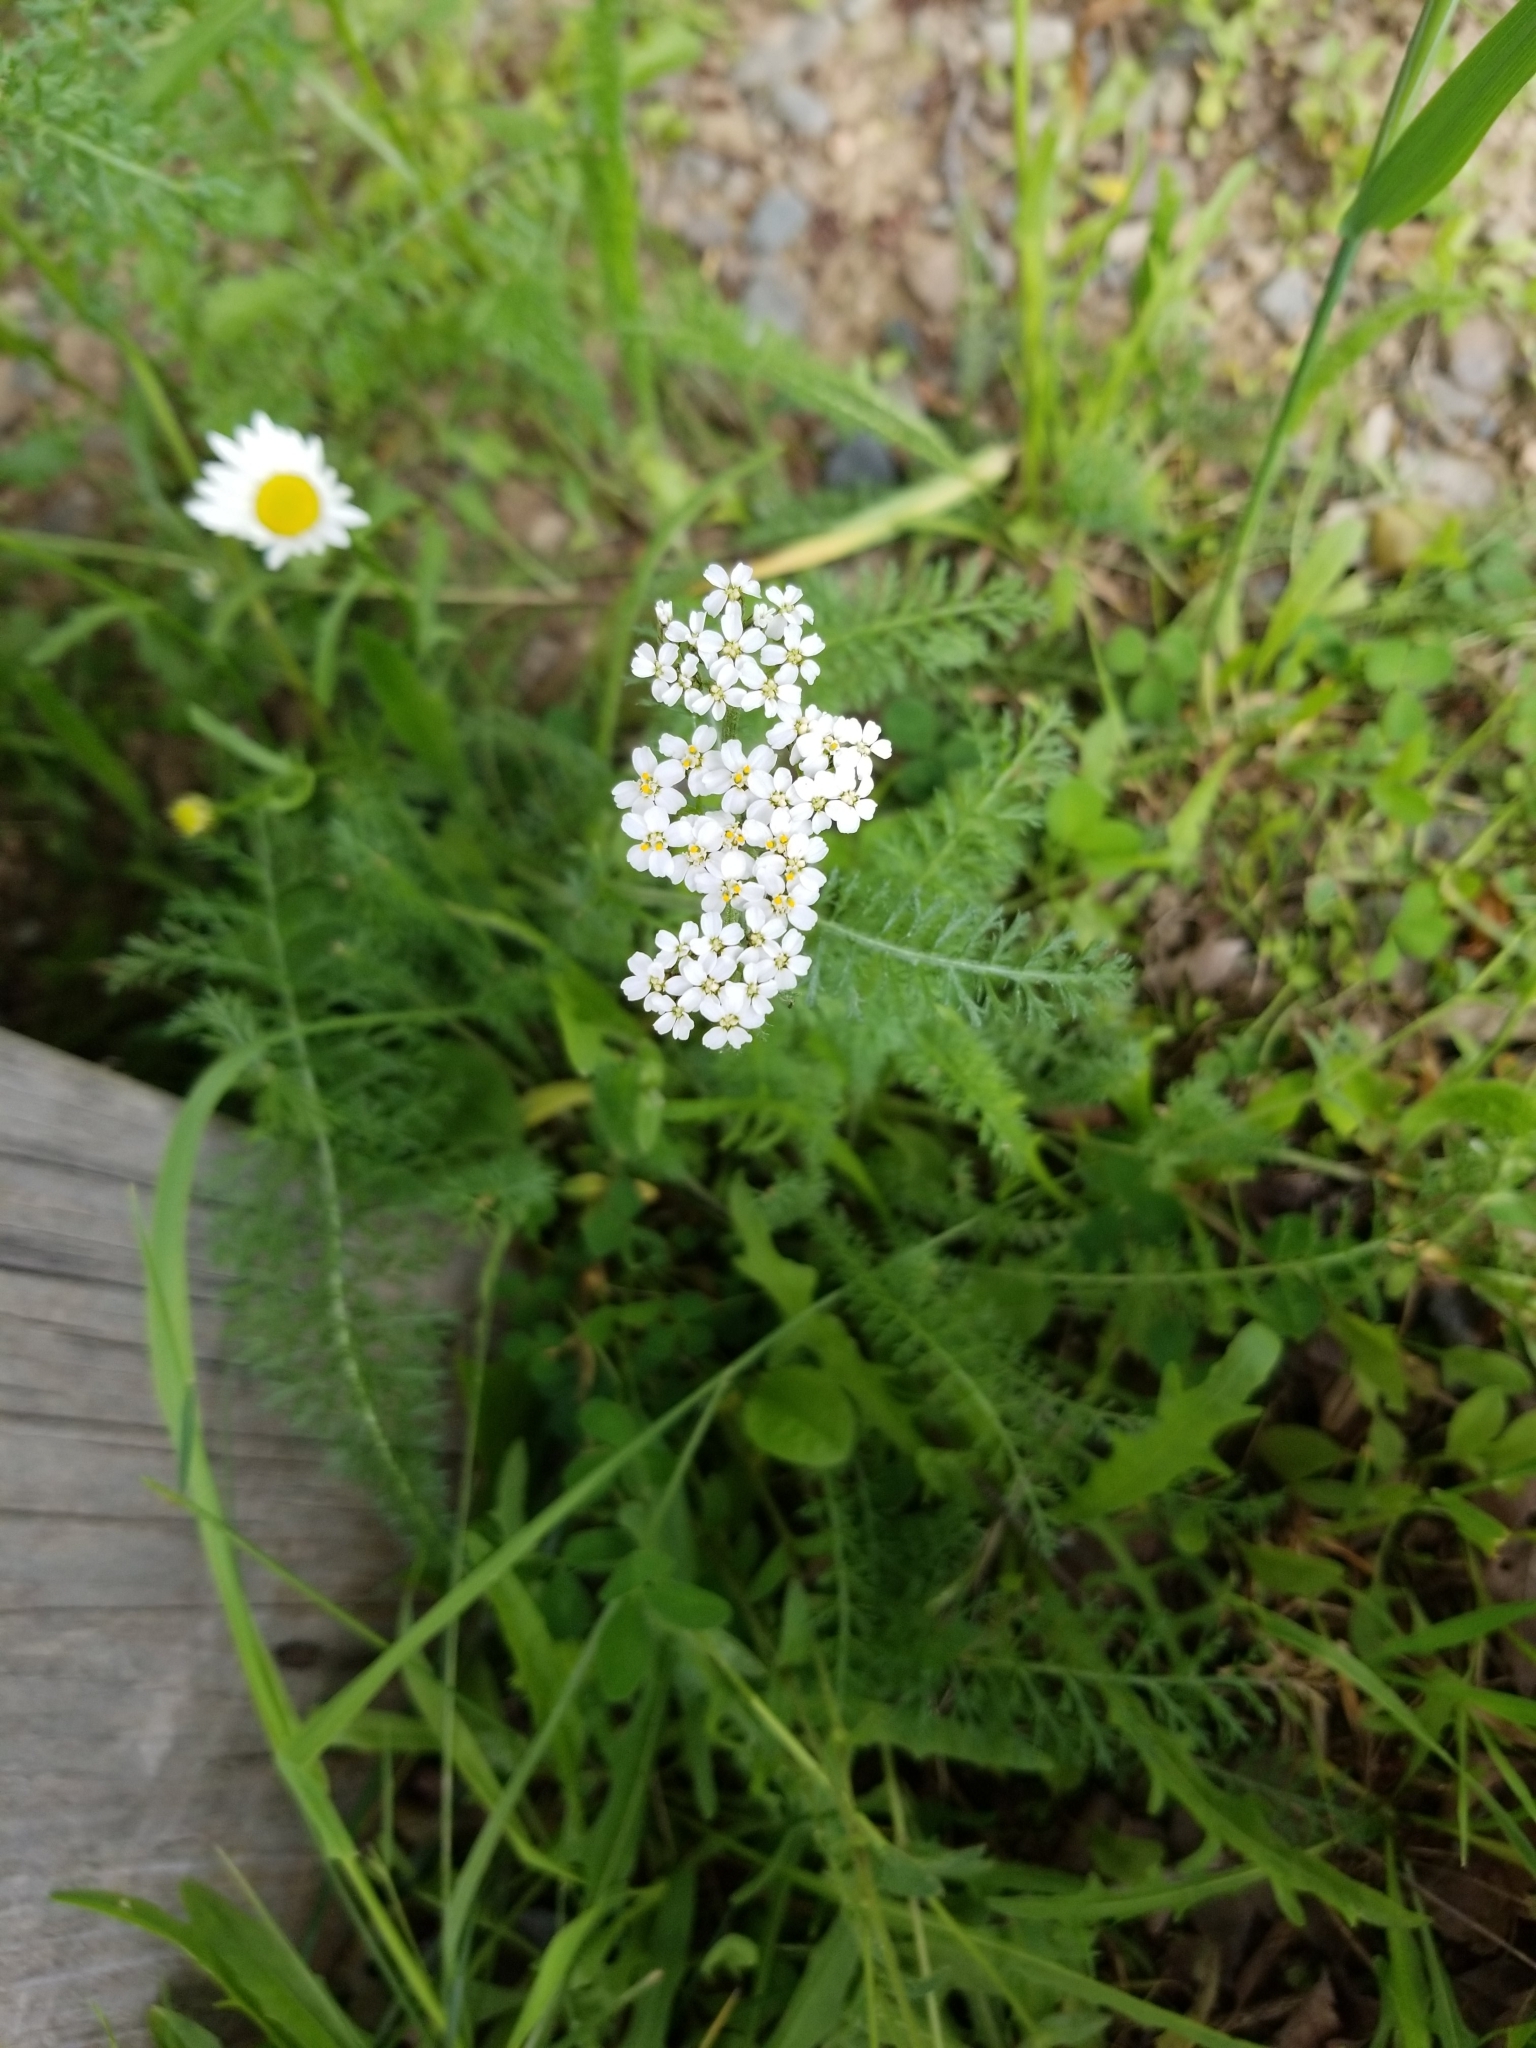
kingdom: Plantae
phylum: Tracheophyta
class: Magnoliopsida
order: Asterales
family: Asteraceae
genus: Achillea
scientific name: Achillea millefolium
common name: Yarrow
